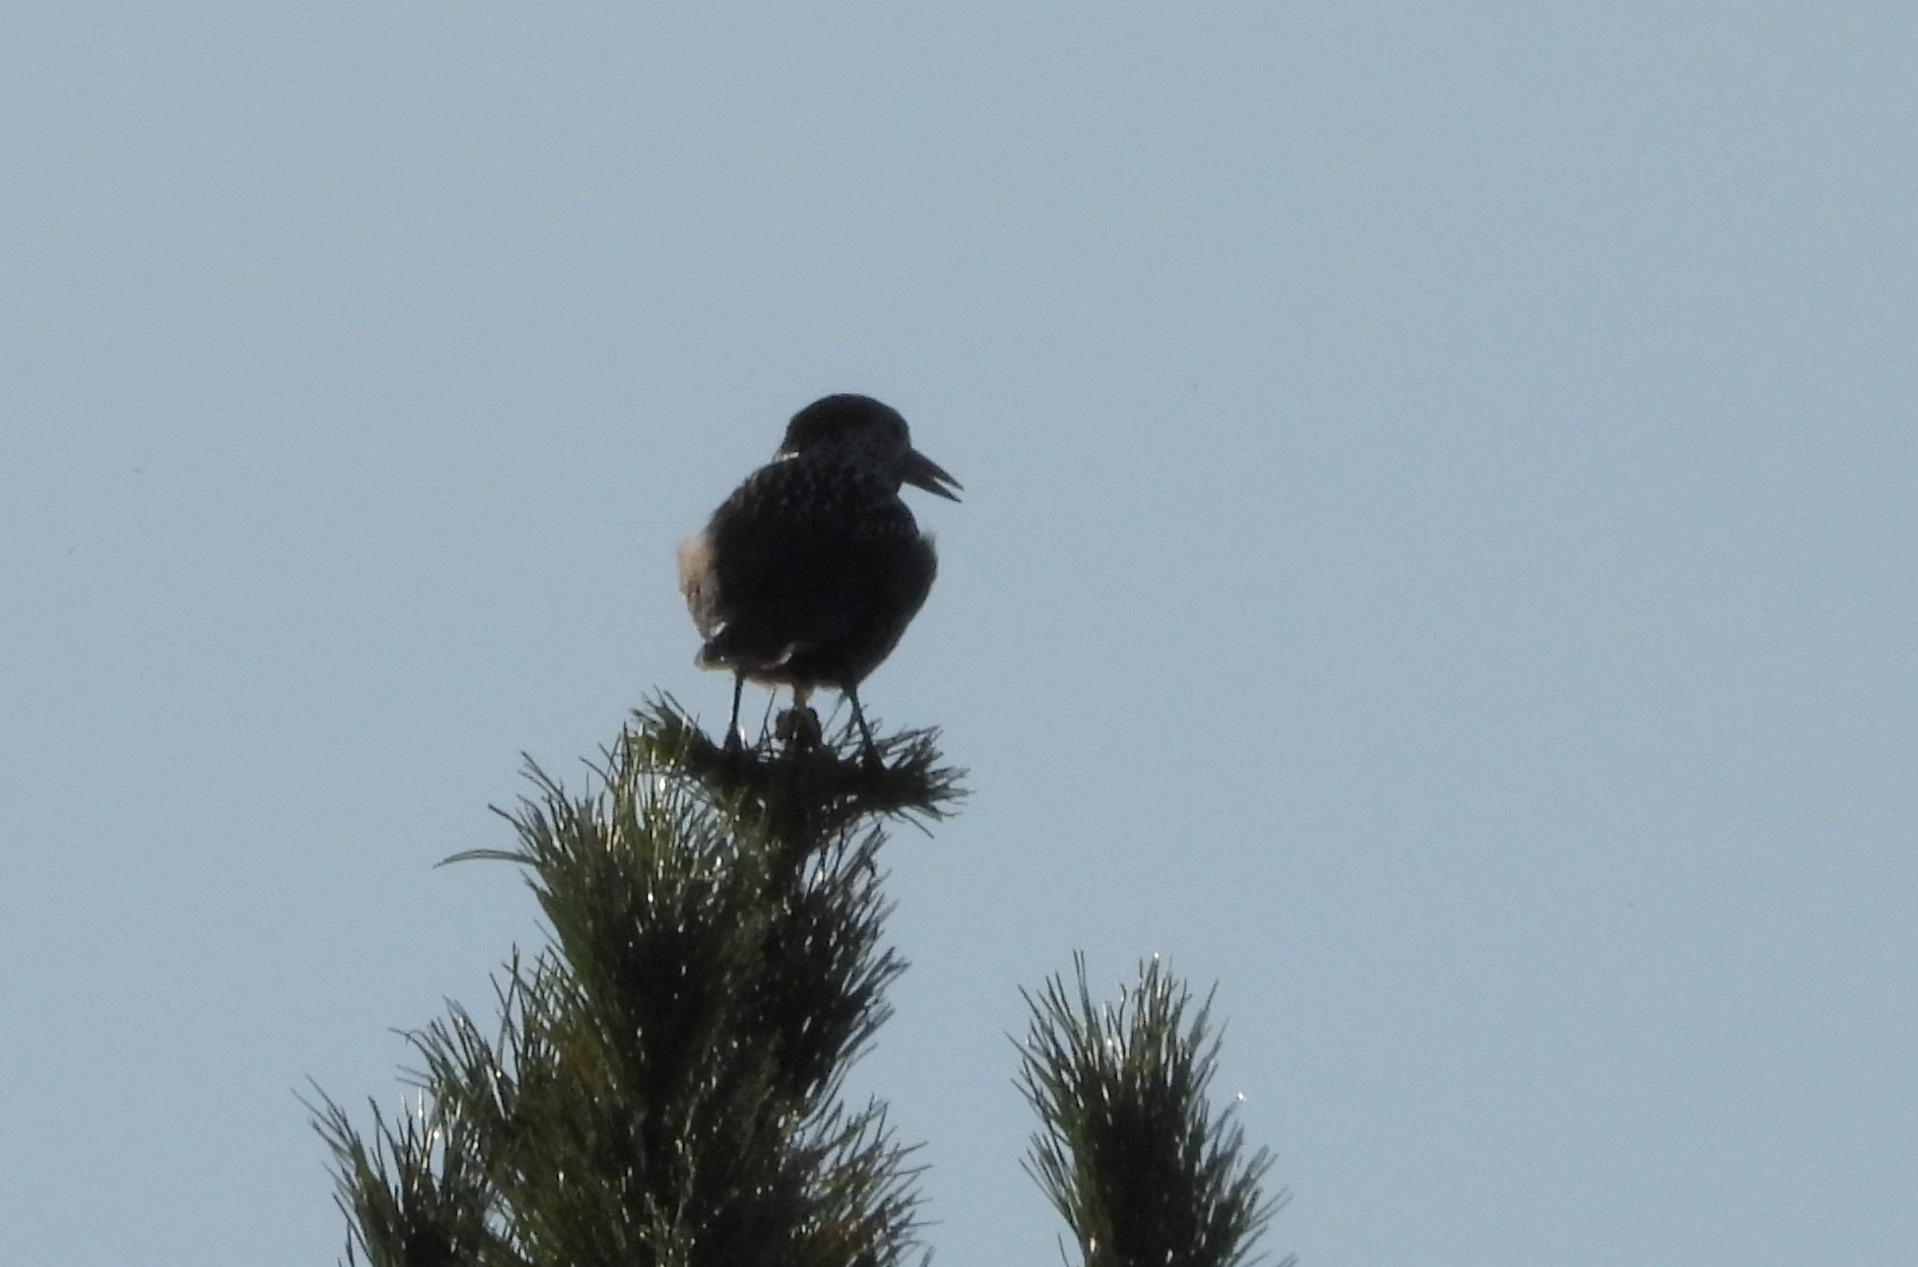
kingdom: Animalia
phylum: Chordata
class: Aves
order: Passeriformes
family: Corvidae
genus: Nucifraga
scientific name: Nucifraga caryocatactes
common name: Spotted nutcracker
